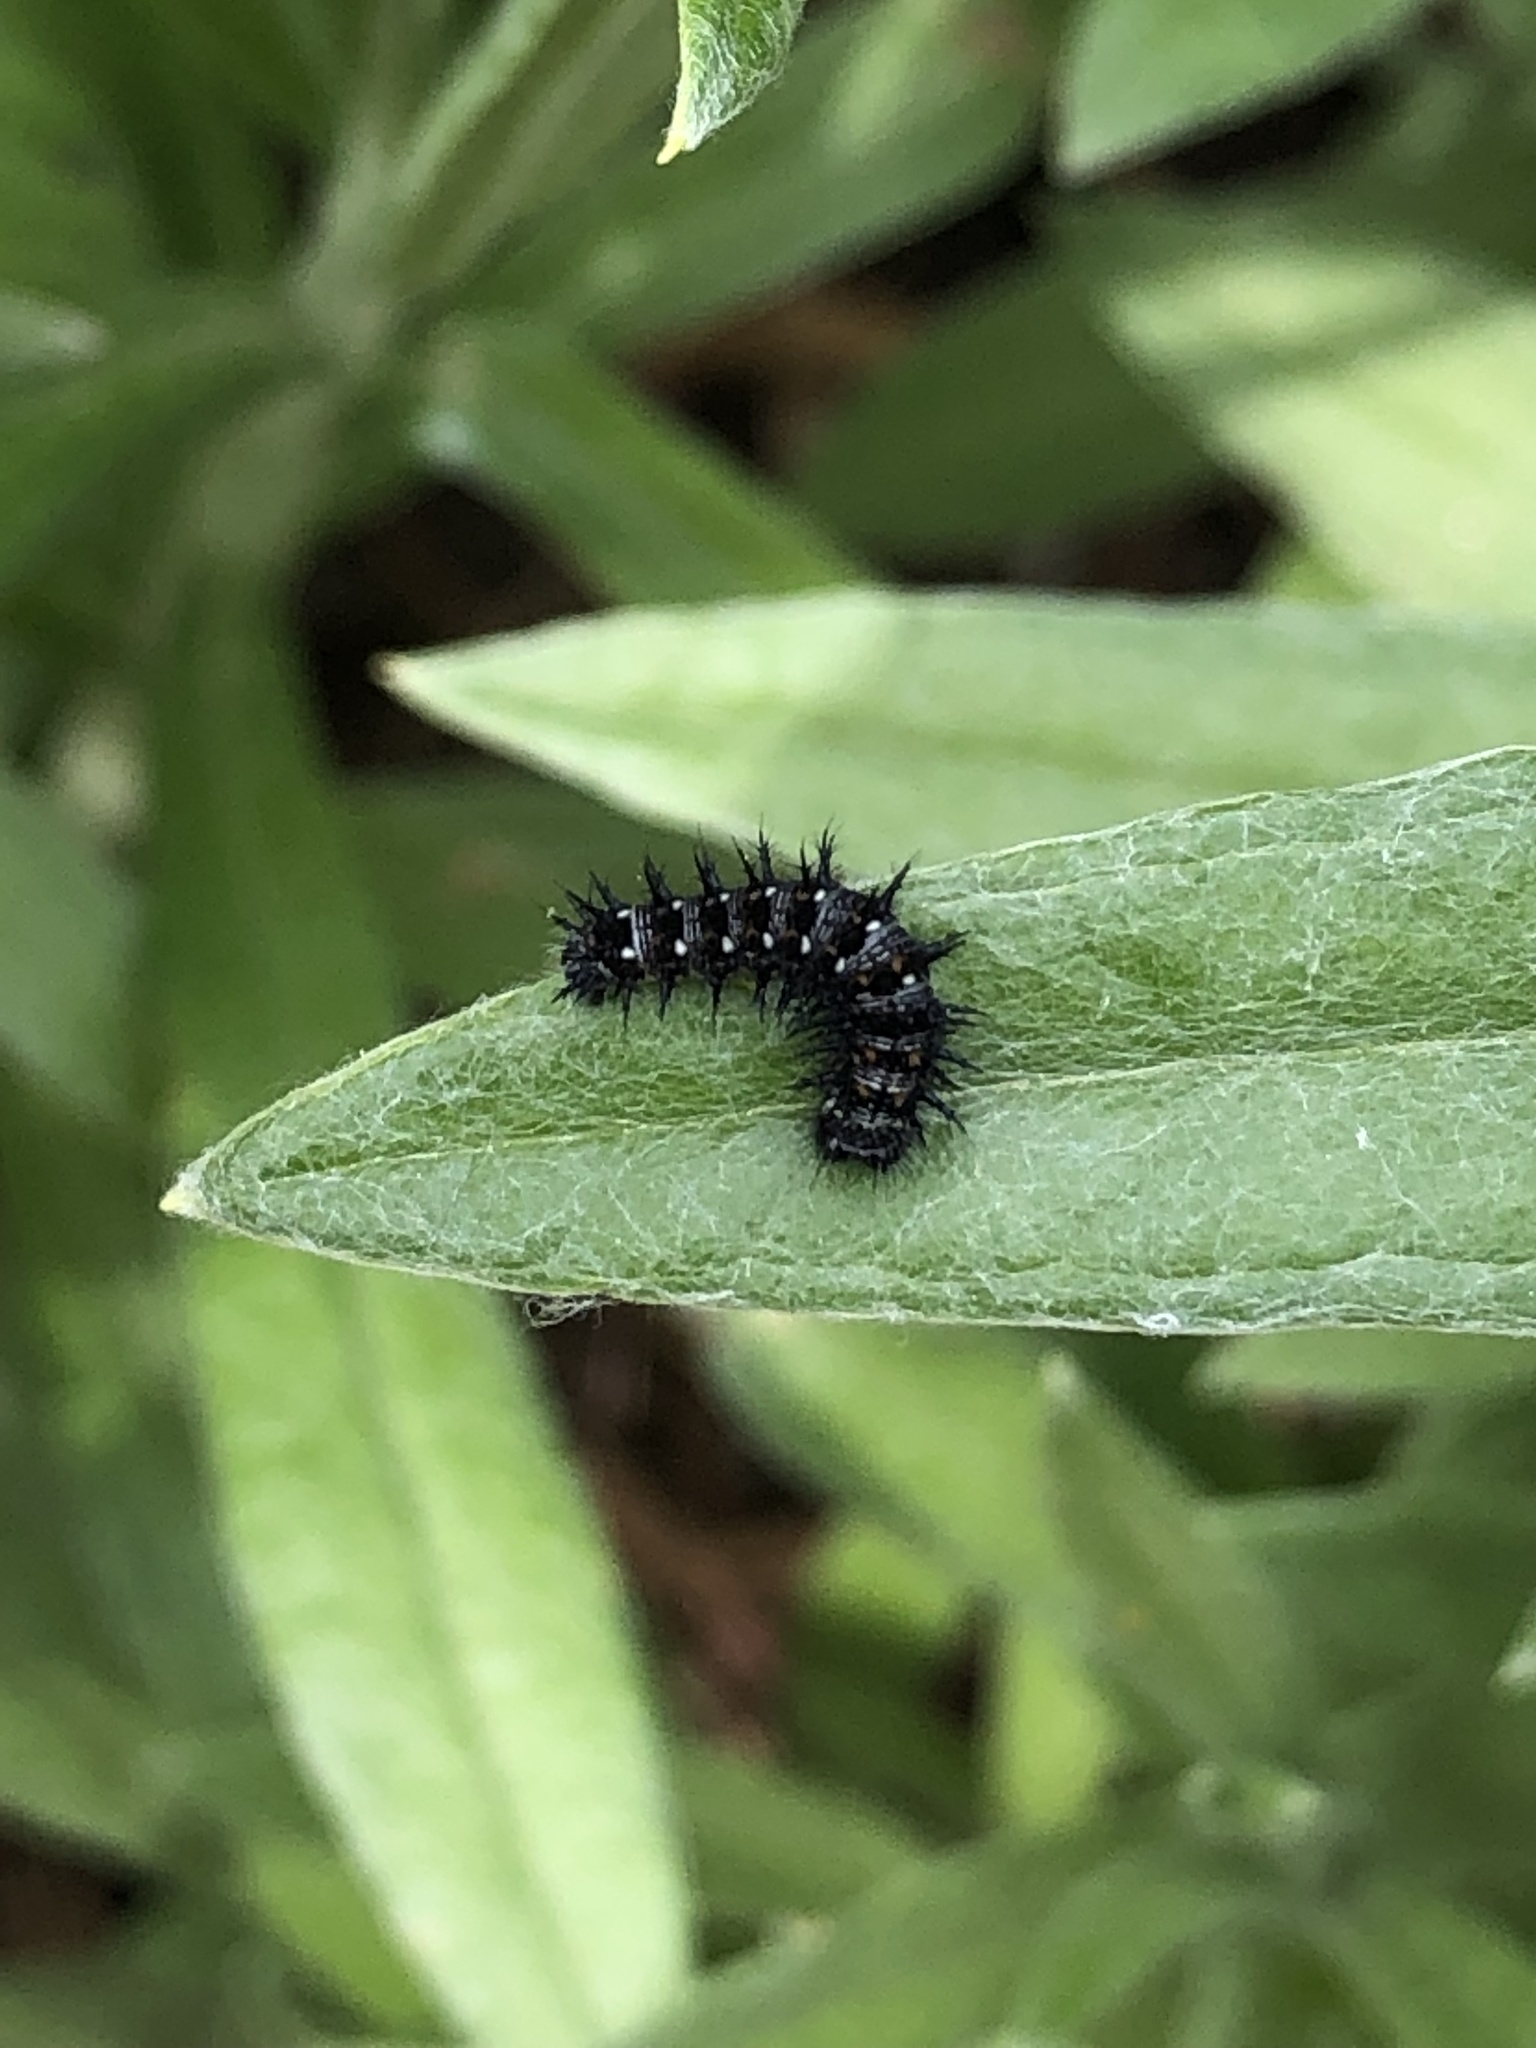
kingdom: Animalia
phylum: Arthropoda
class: Insecta
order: Lepidoptera
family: Nymphalidae
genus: Vanessa
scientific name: Vanessa virginiensis
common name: American lady
